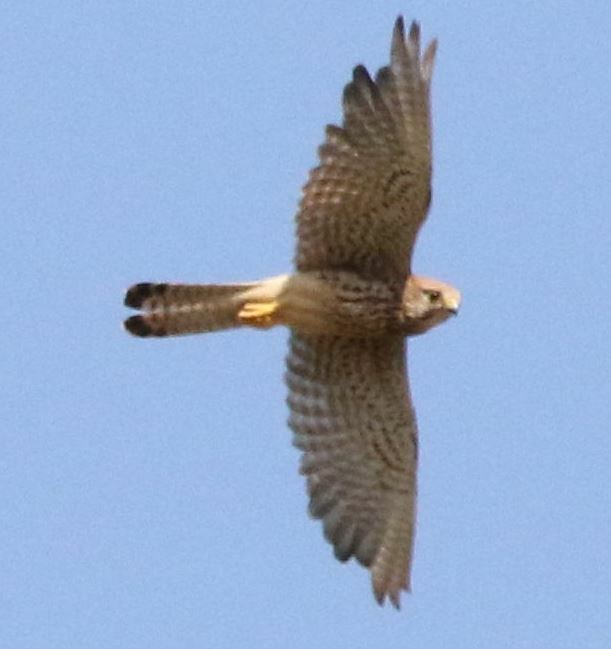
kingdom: Animalia
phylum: Chordata
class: Aves
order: Falconiformes
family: Falconidae
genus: Falco
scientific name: Falco tinnunculus
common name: Common kestrel
